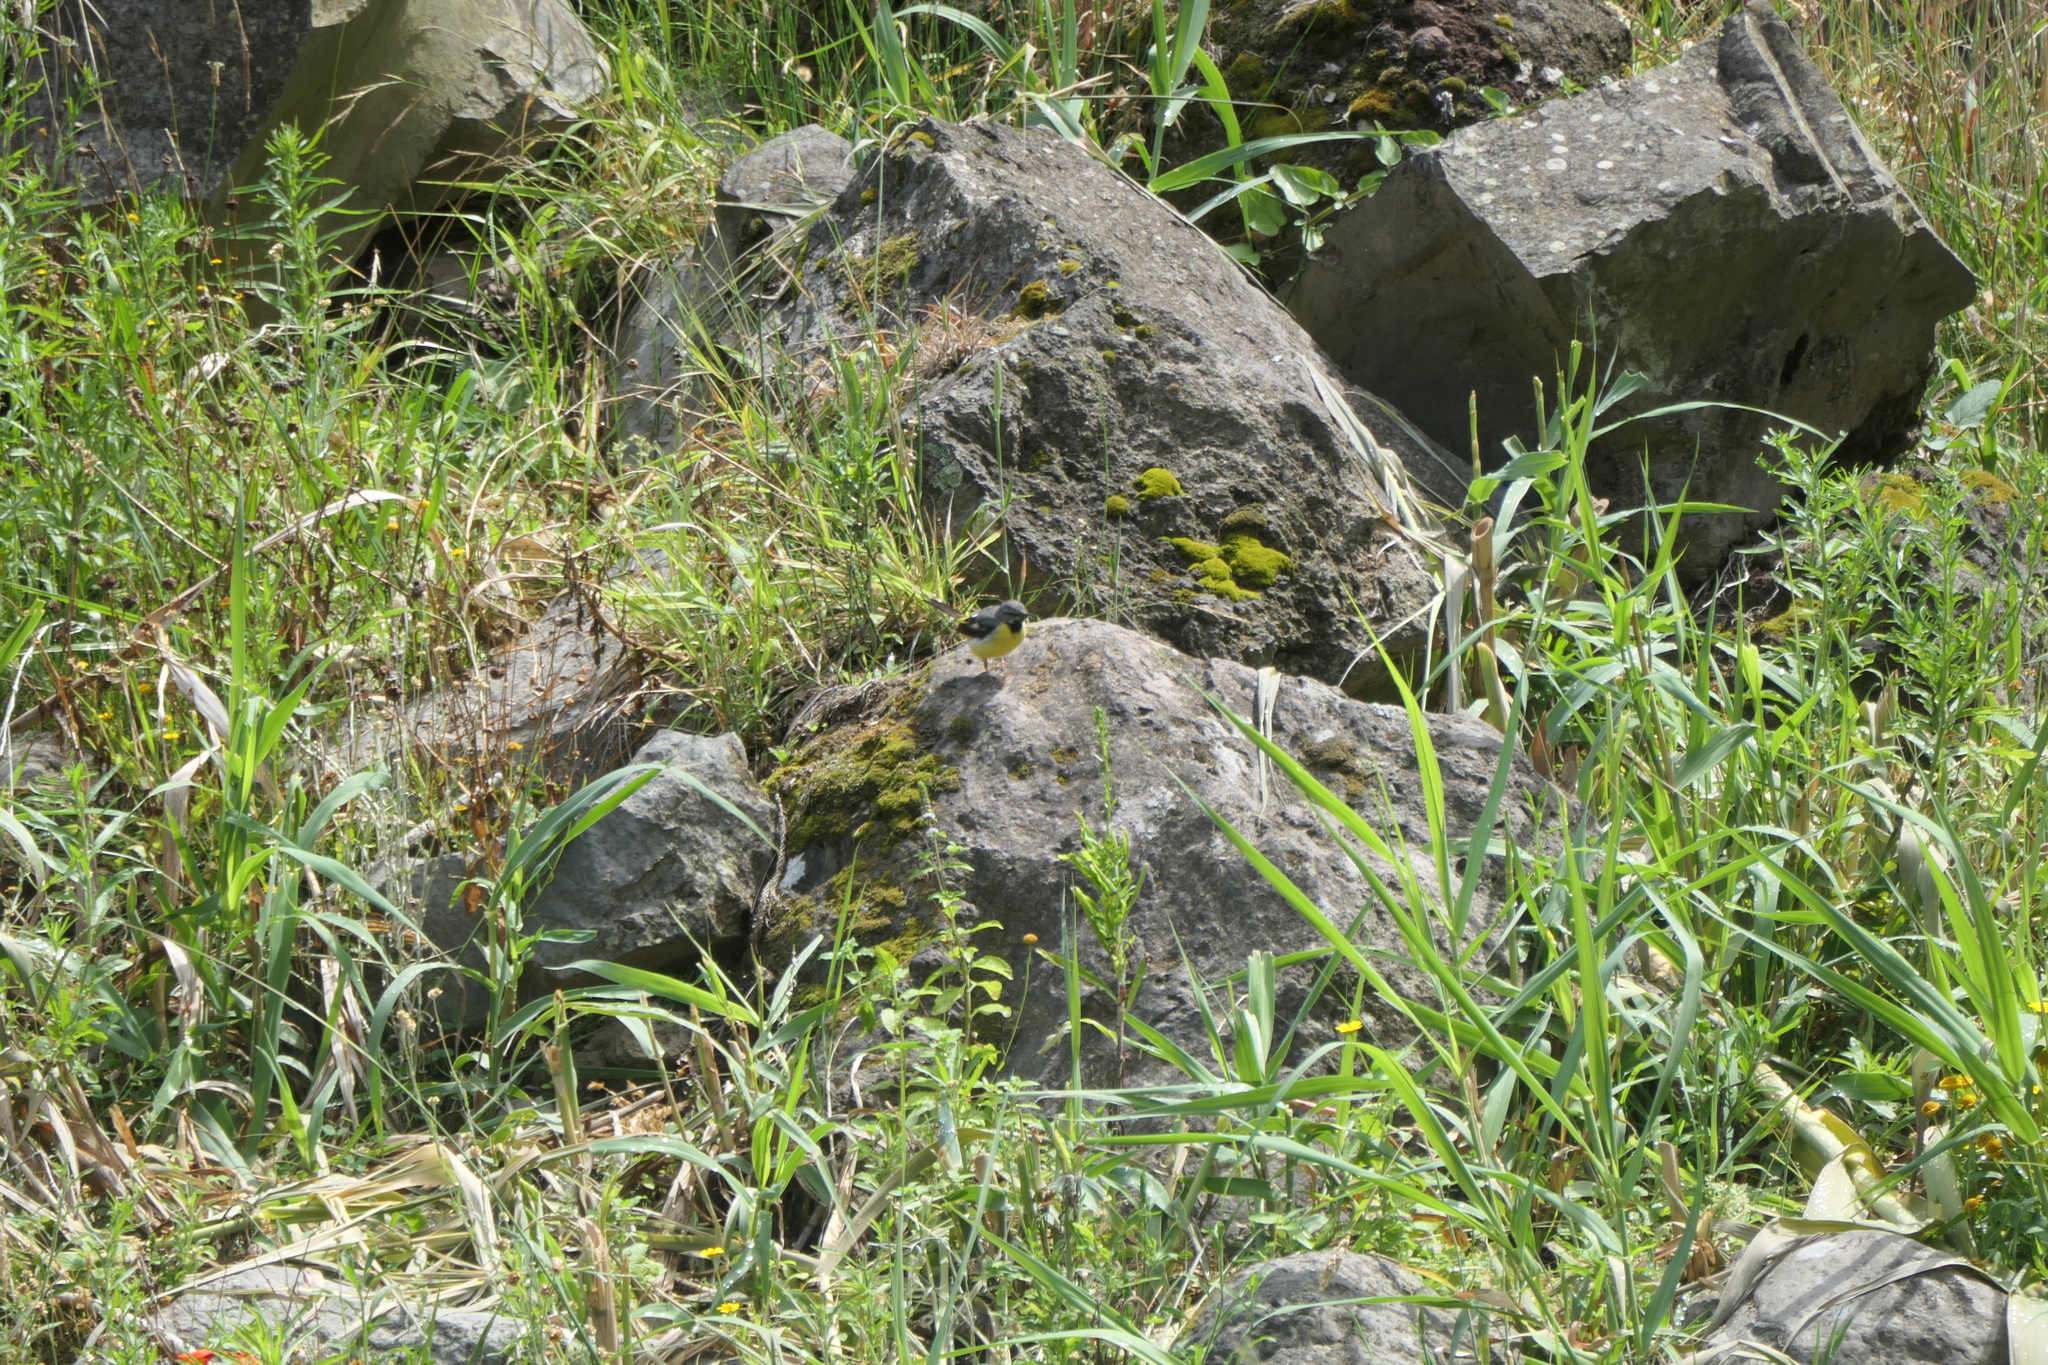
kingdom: Animalia
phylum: Chordata
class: Aves
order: Passeriformes
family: Motacillidae
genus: Motacilla
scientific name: Motacilla cinerea
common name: Grey wagtail
